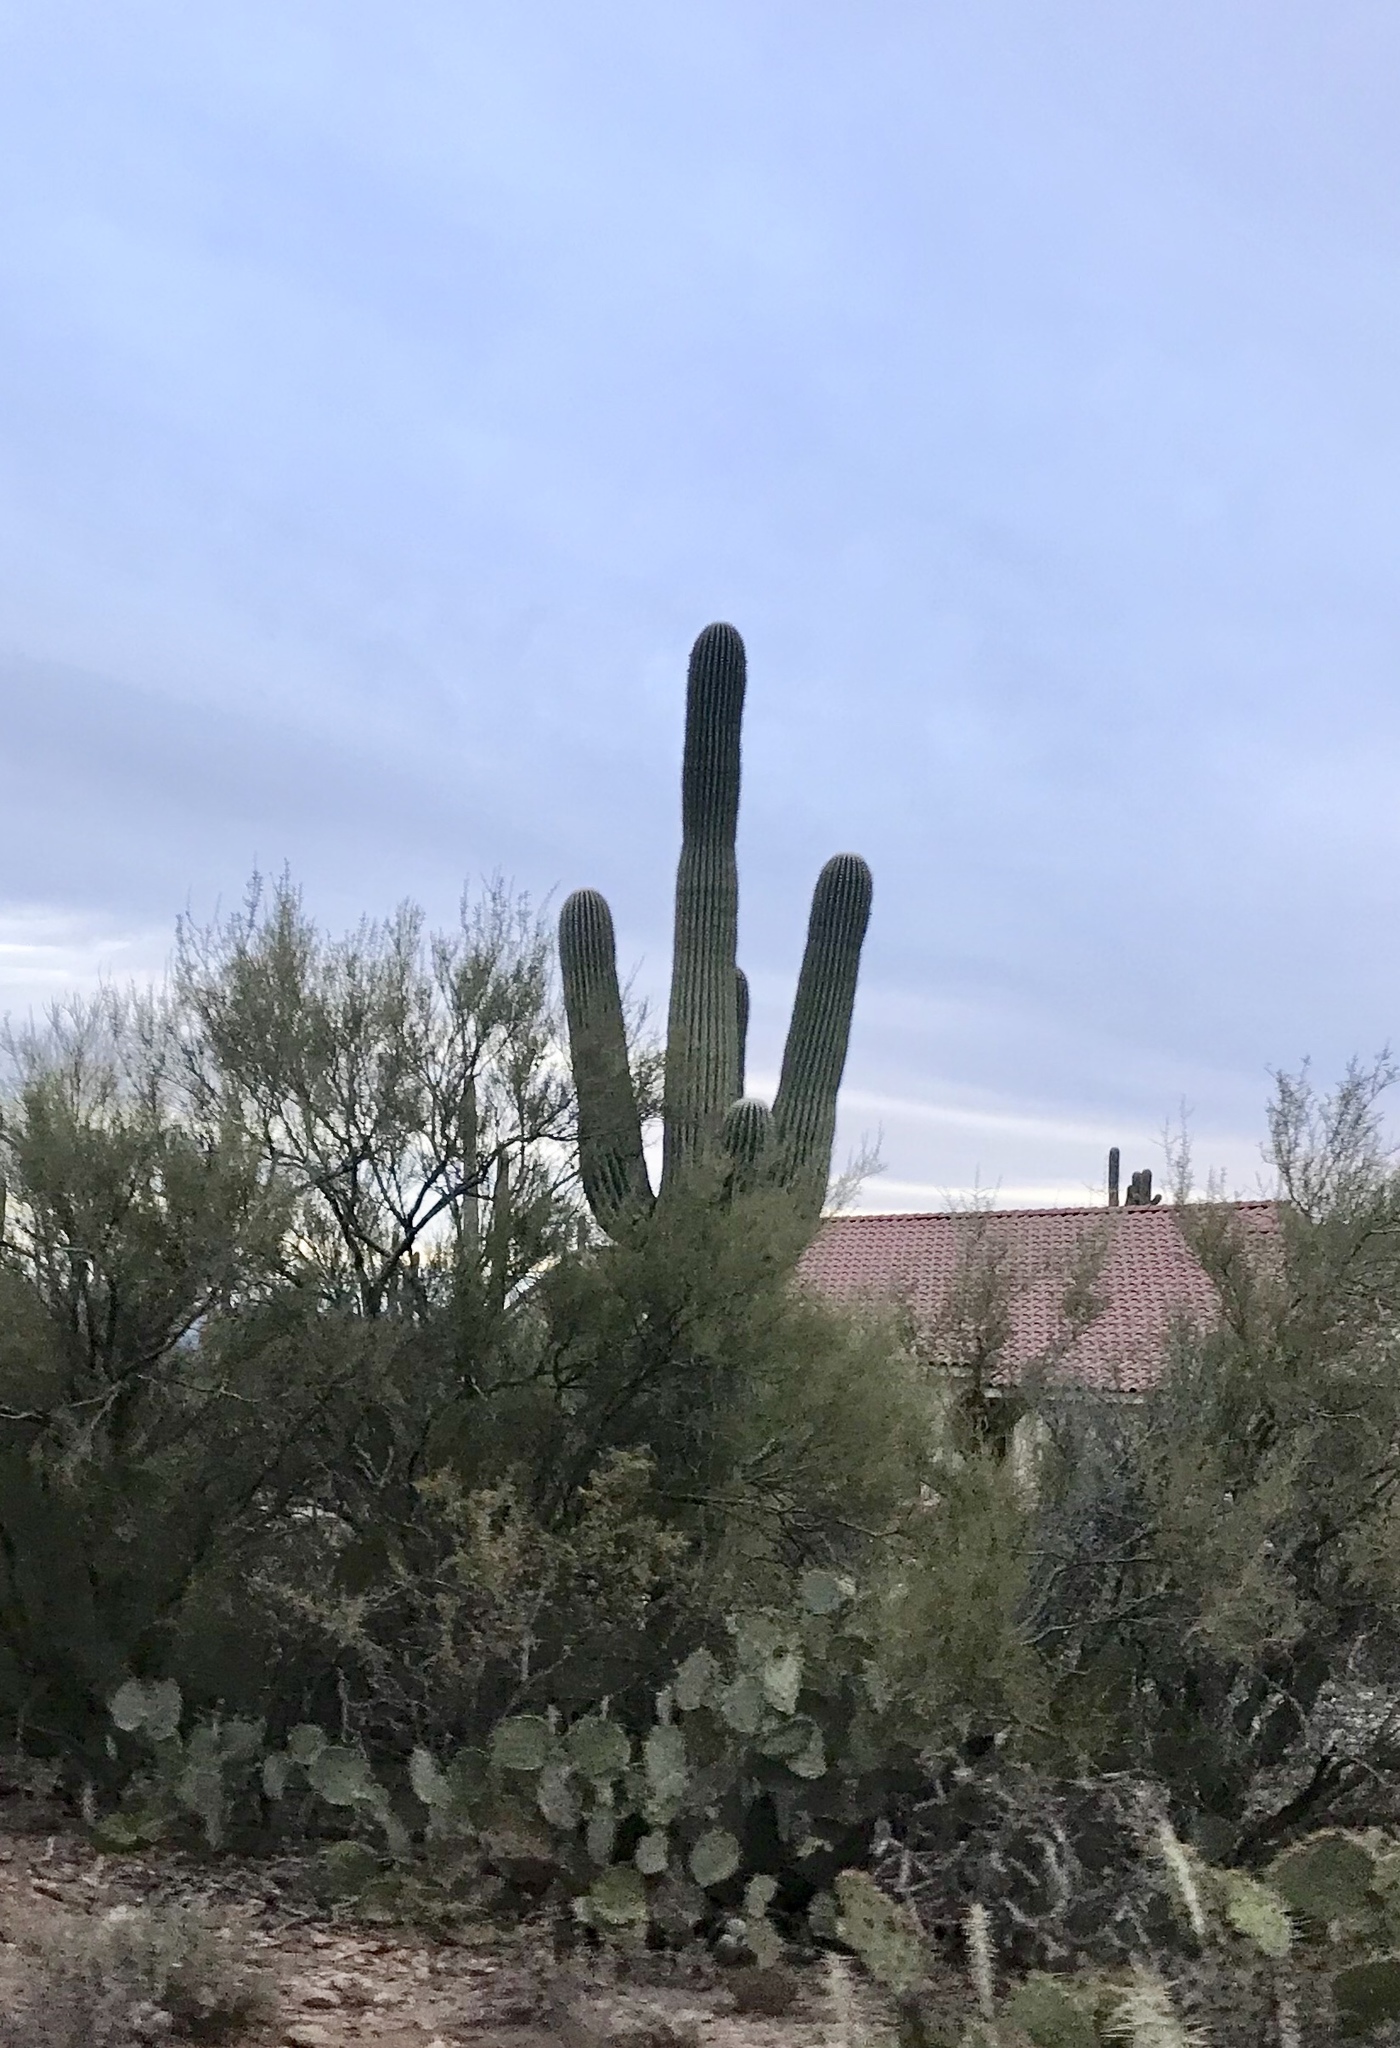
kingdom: Plantae
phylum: Tracheophyta
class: Magnoliopsida
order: Caryophyllales
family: Cactaceae
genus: Carnegiea
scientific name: Carnegiea gigantea
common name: Saguaro
